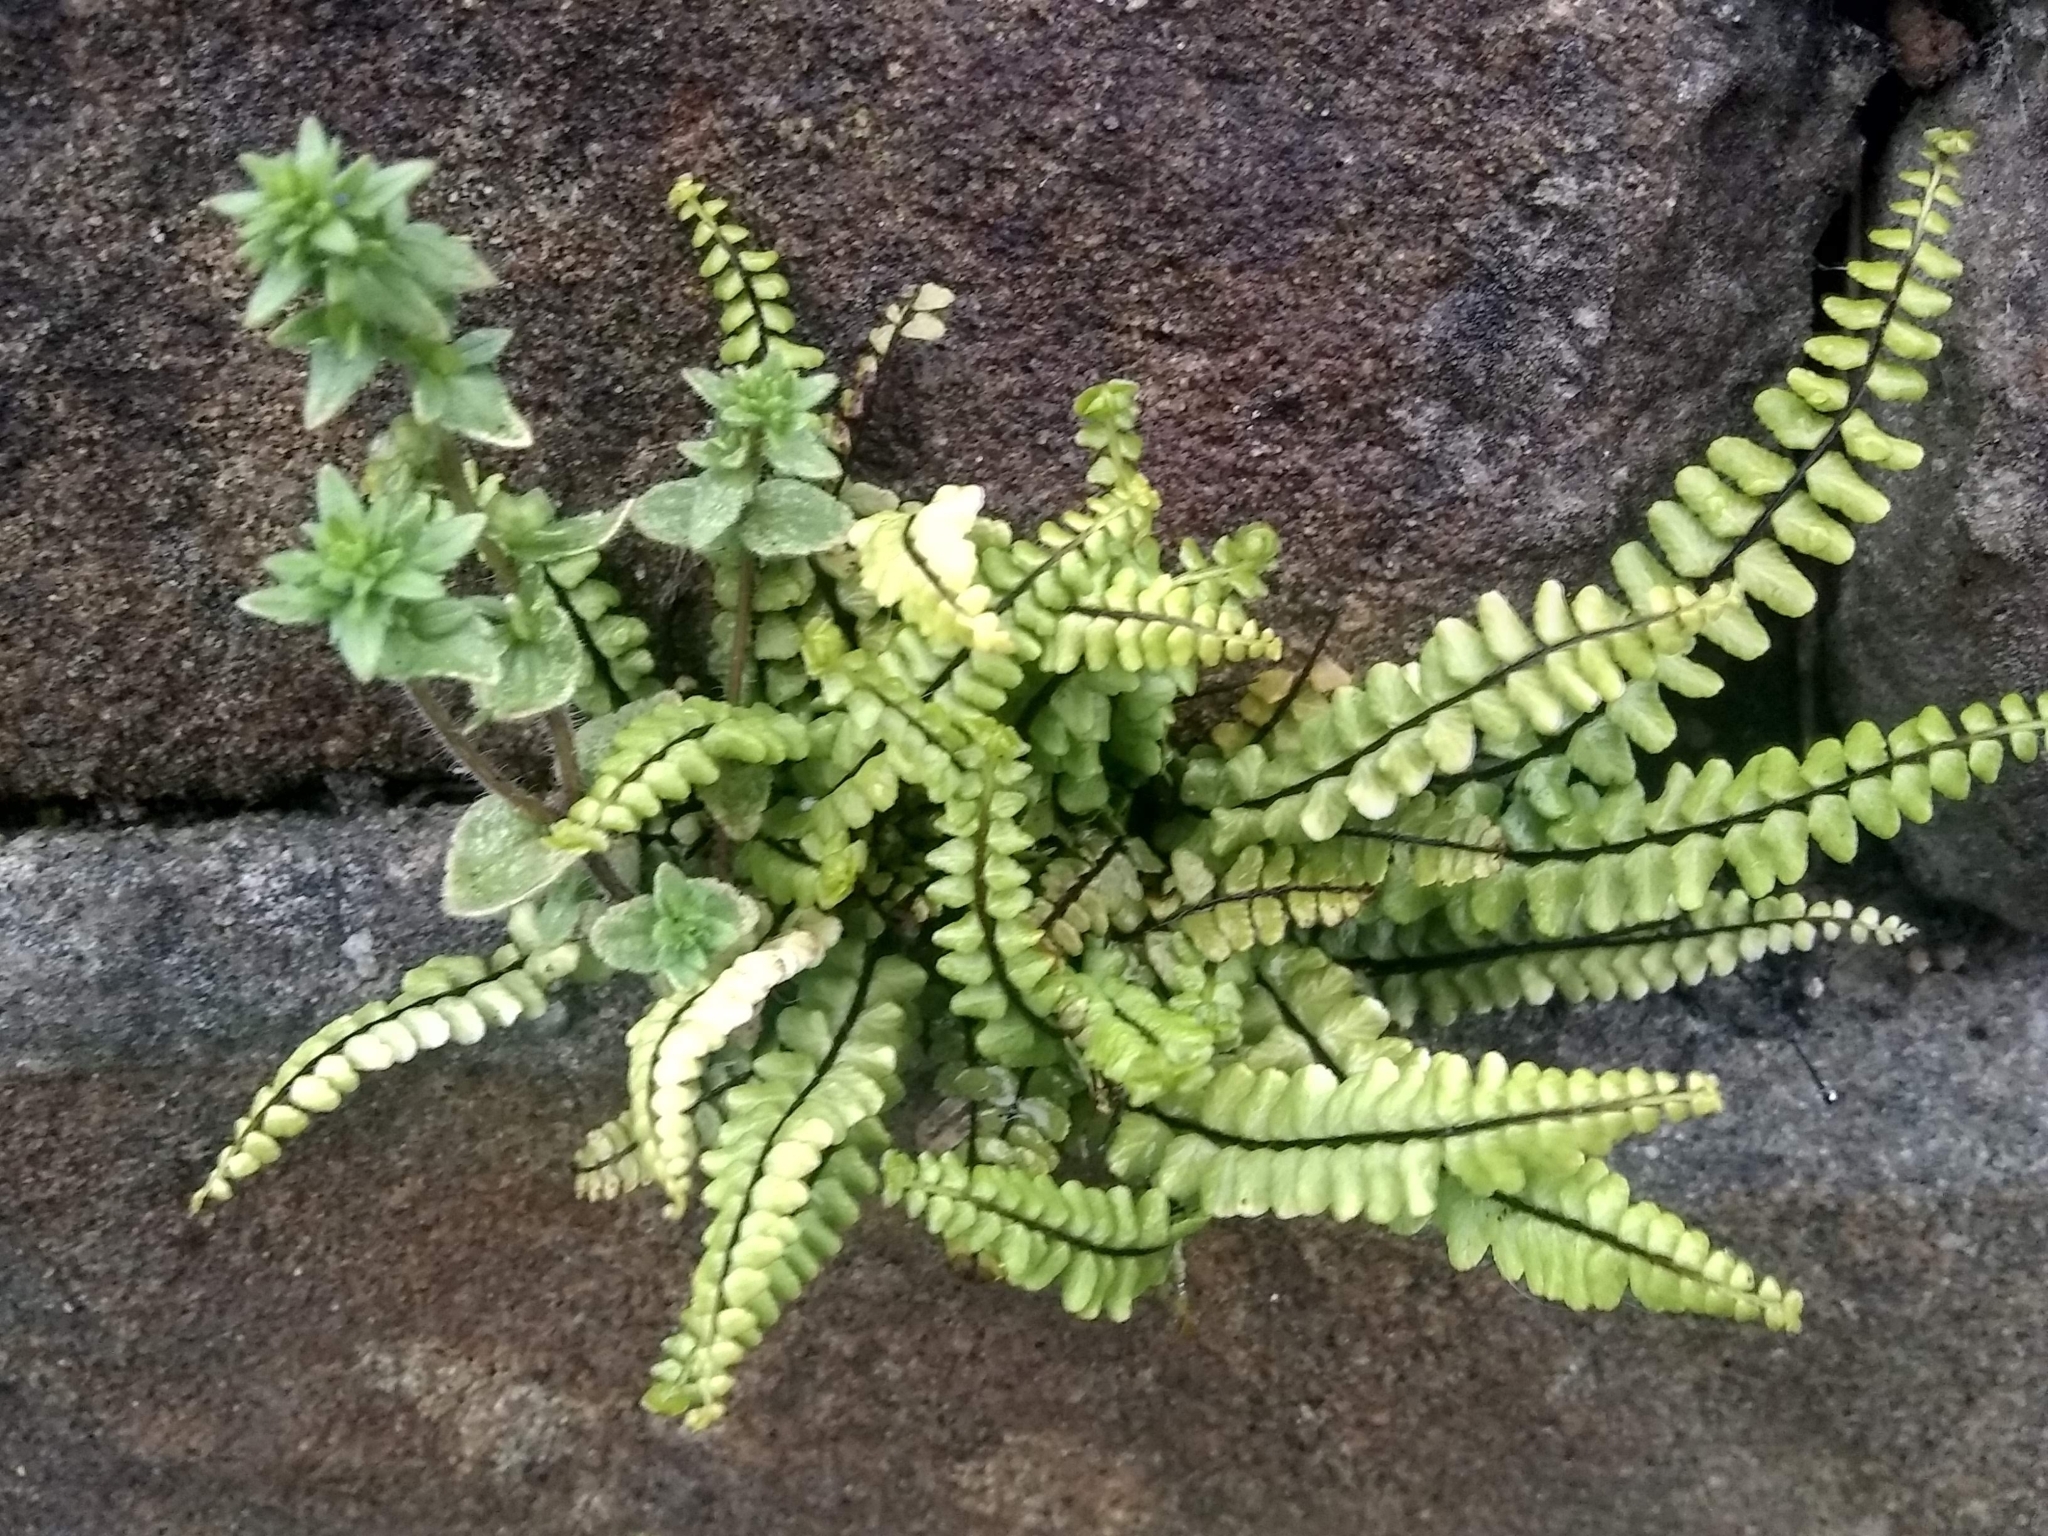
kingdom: Plantae
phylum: Tracheophyta
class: Polypodiopsida
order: Polypodiales
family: Aspleniaceae
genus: Asplenium
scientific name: Asplenium trichomanes
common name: Maidenhair spleenwort
